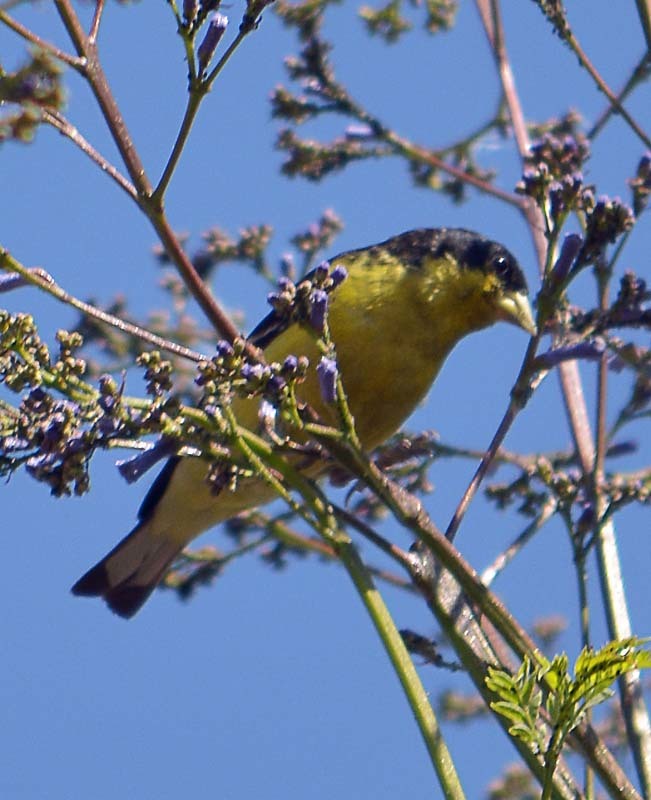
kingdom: Animalia
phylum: Chordata
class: Aves
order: Passeriformes
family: Fringillidae
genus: Spinus
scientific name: Spinus psaltria
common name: Lesser goldfinch
